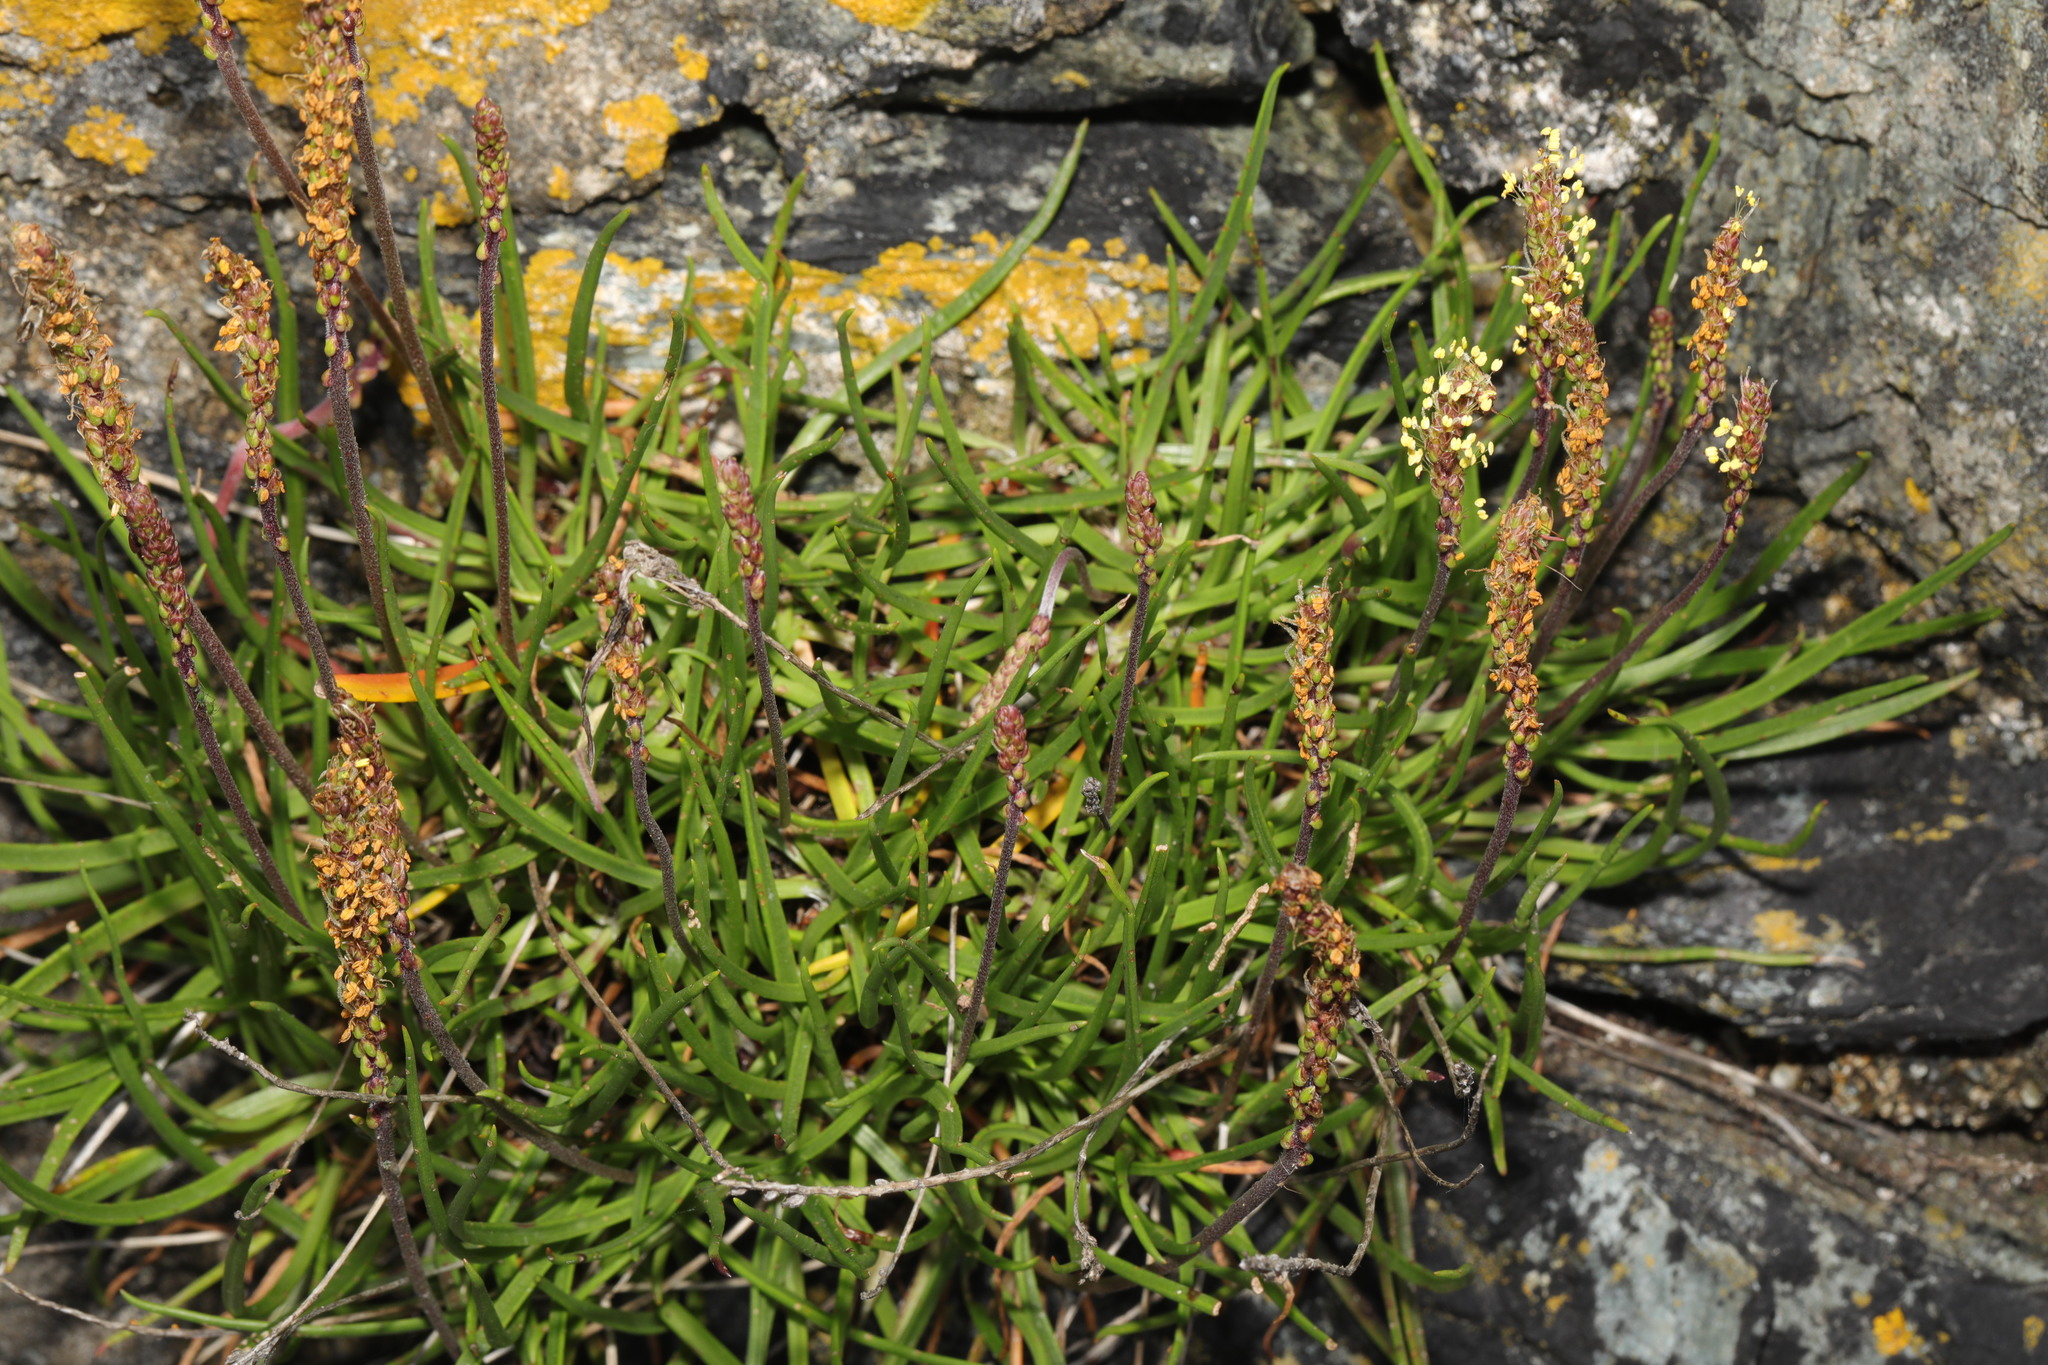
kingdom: Plantae
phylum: Tracheophyta
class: Magnoliopsida
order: Lamiales
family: Plantaginaceae
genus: Plantago
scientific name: Plantago maritima
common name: Sea plantain
